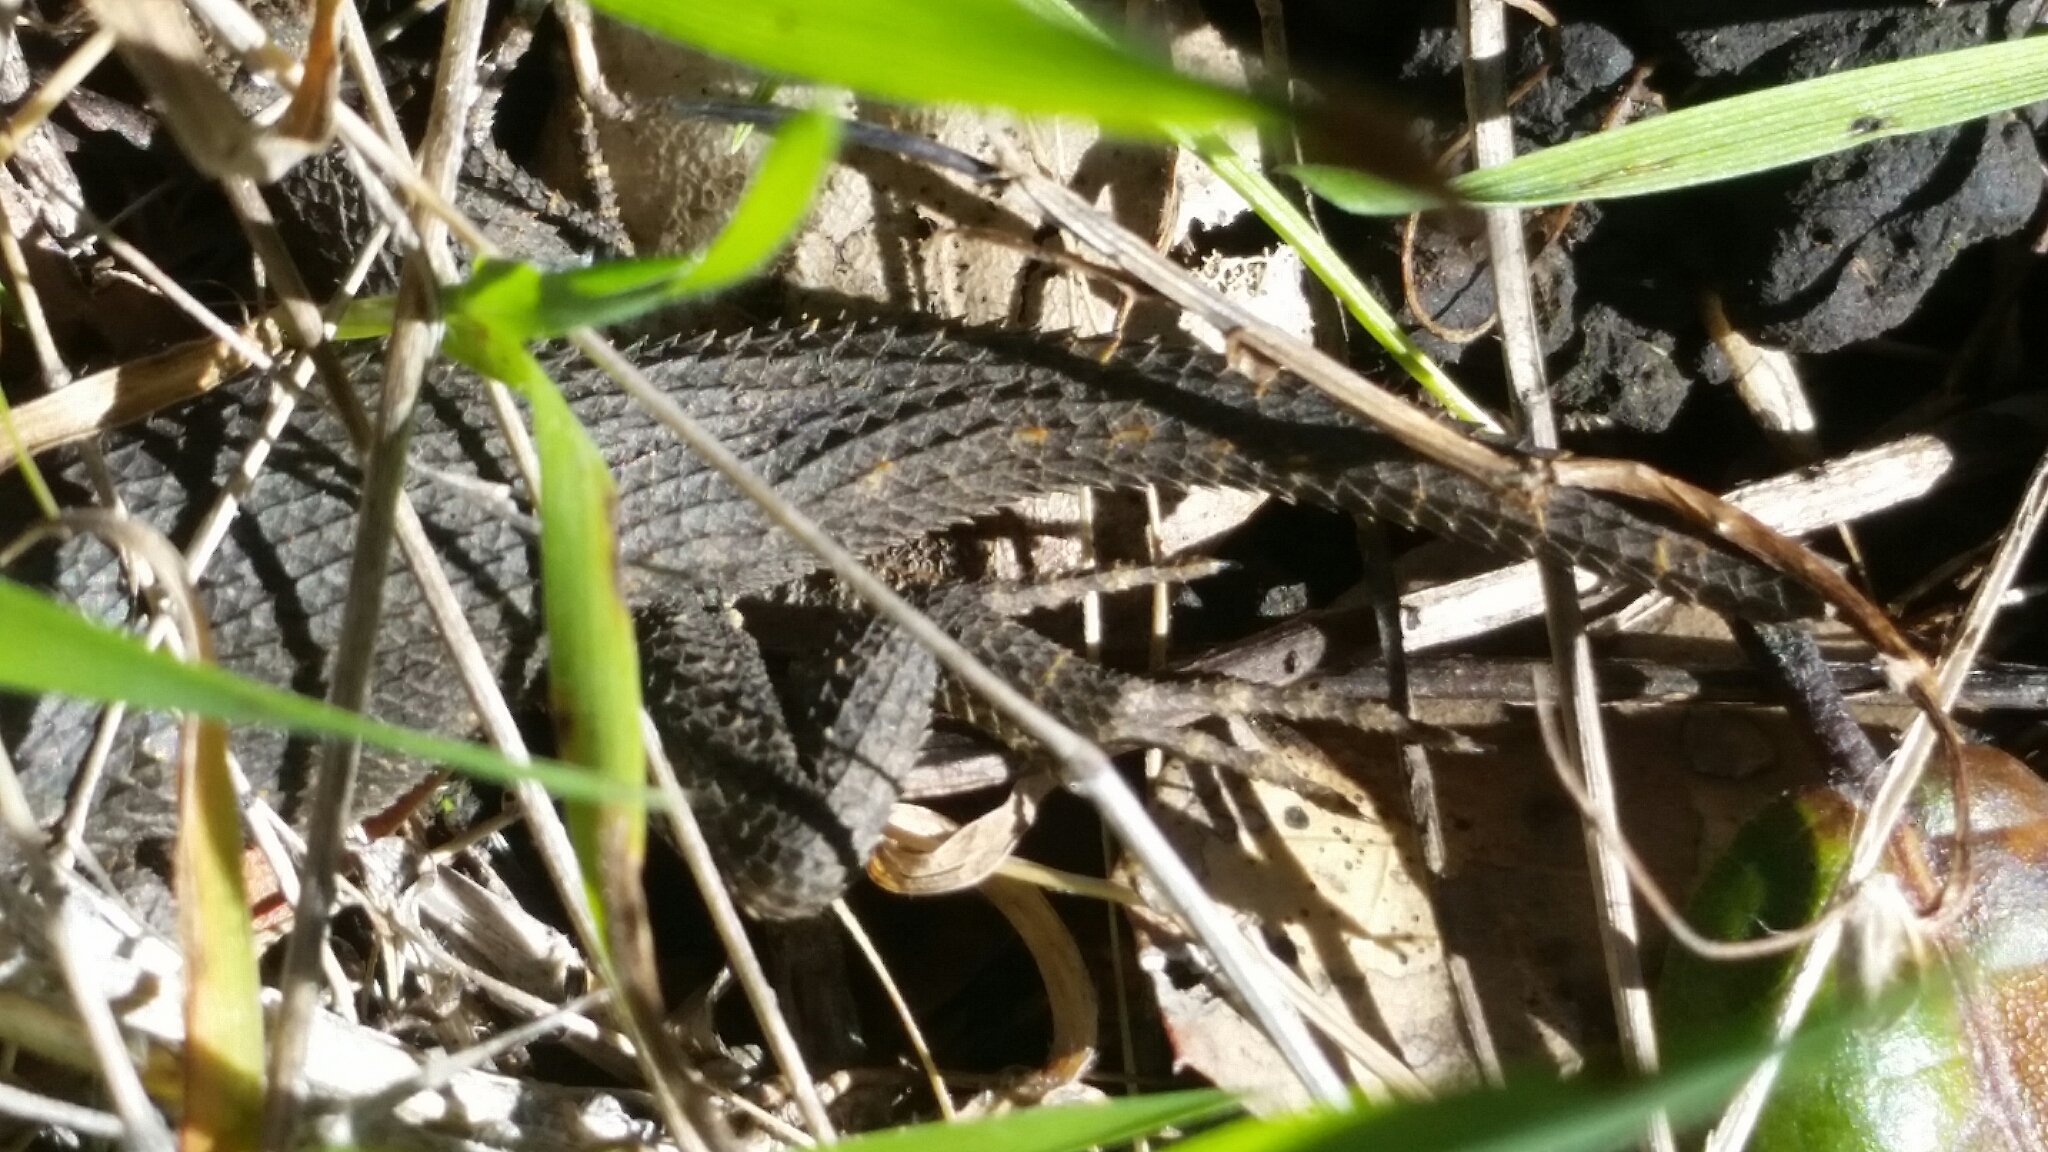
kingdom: Animalia
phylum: Chordata
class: Squamata
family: Phrynosomatidae
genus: Sceloporus
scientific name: Sceloporus occidentalis
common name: Western fence lizard
